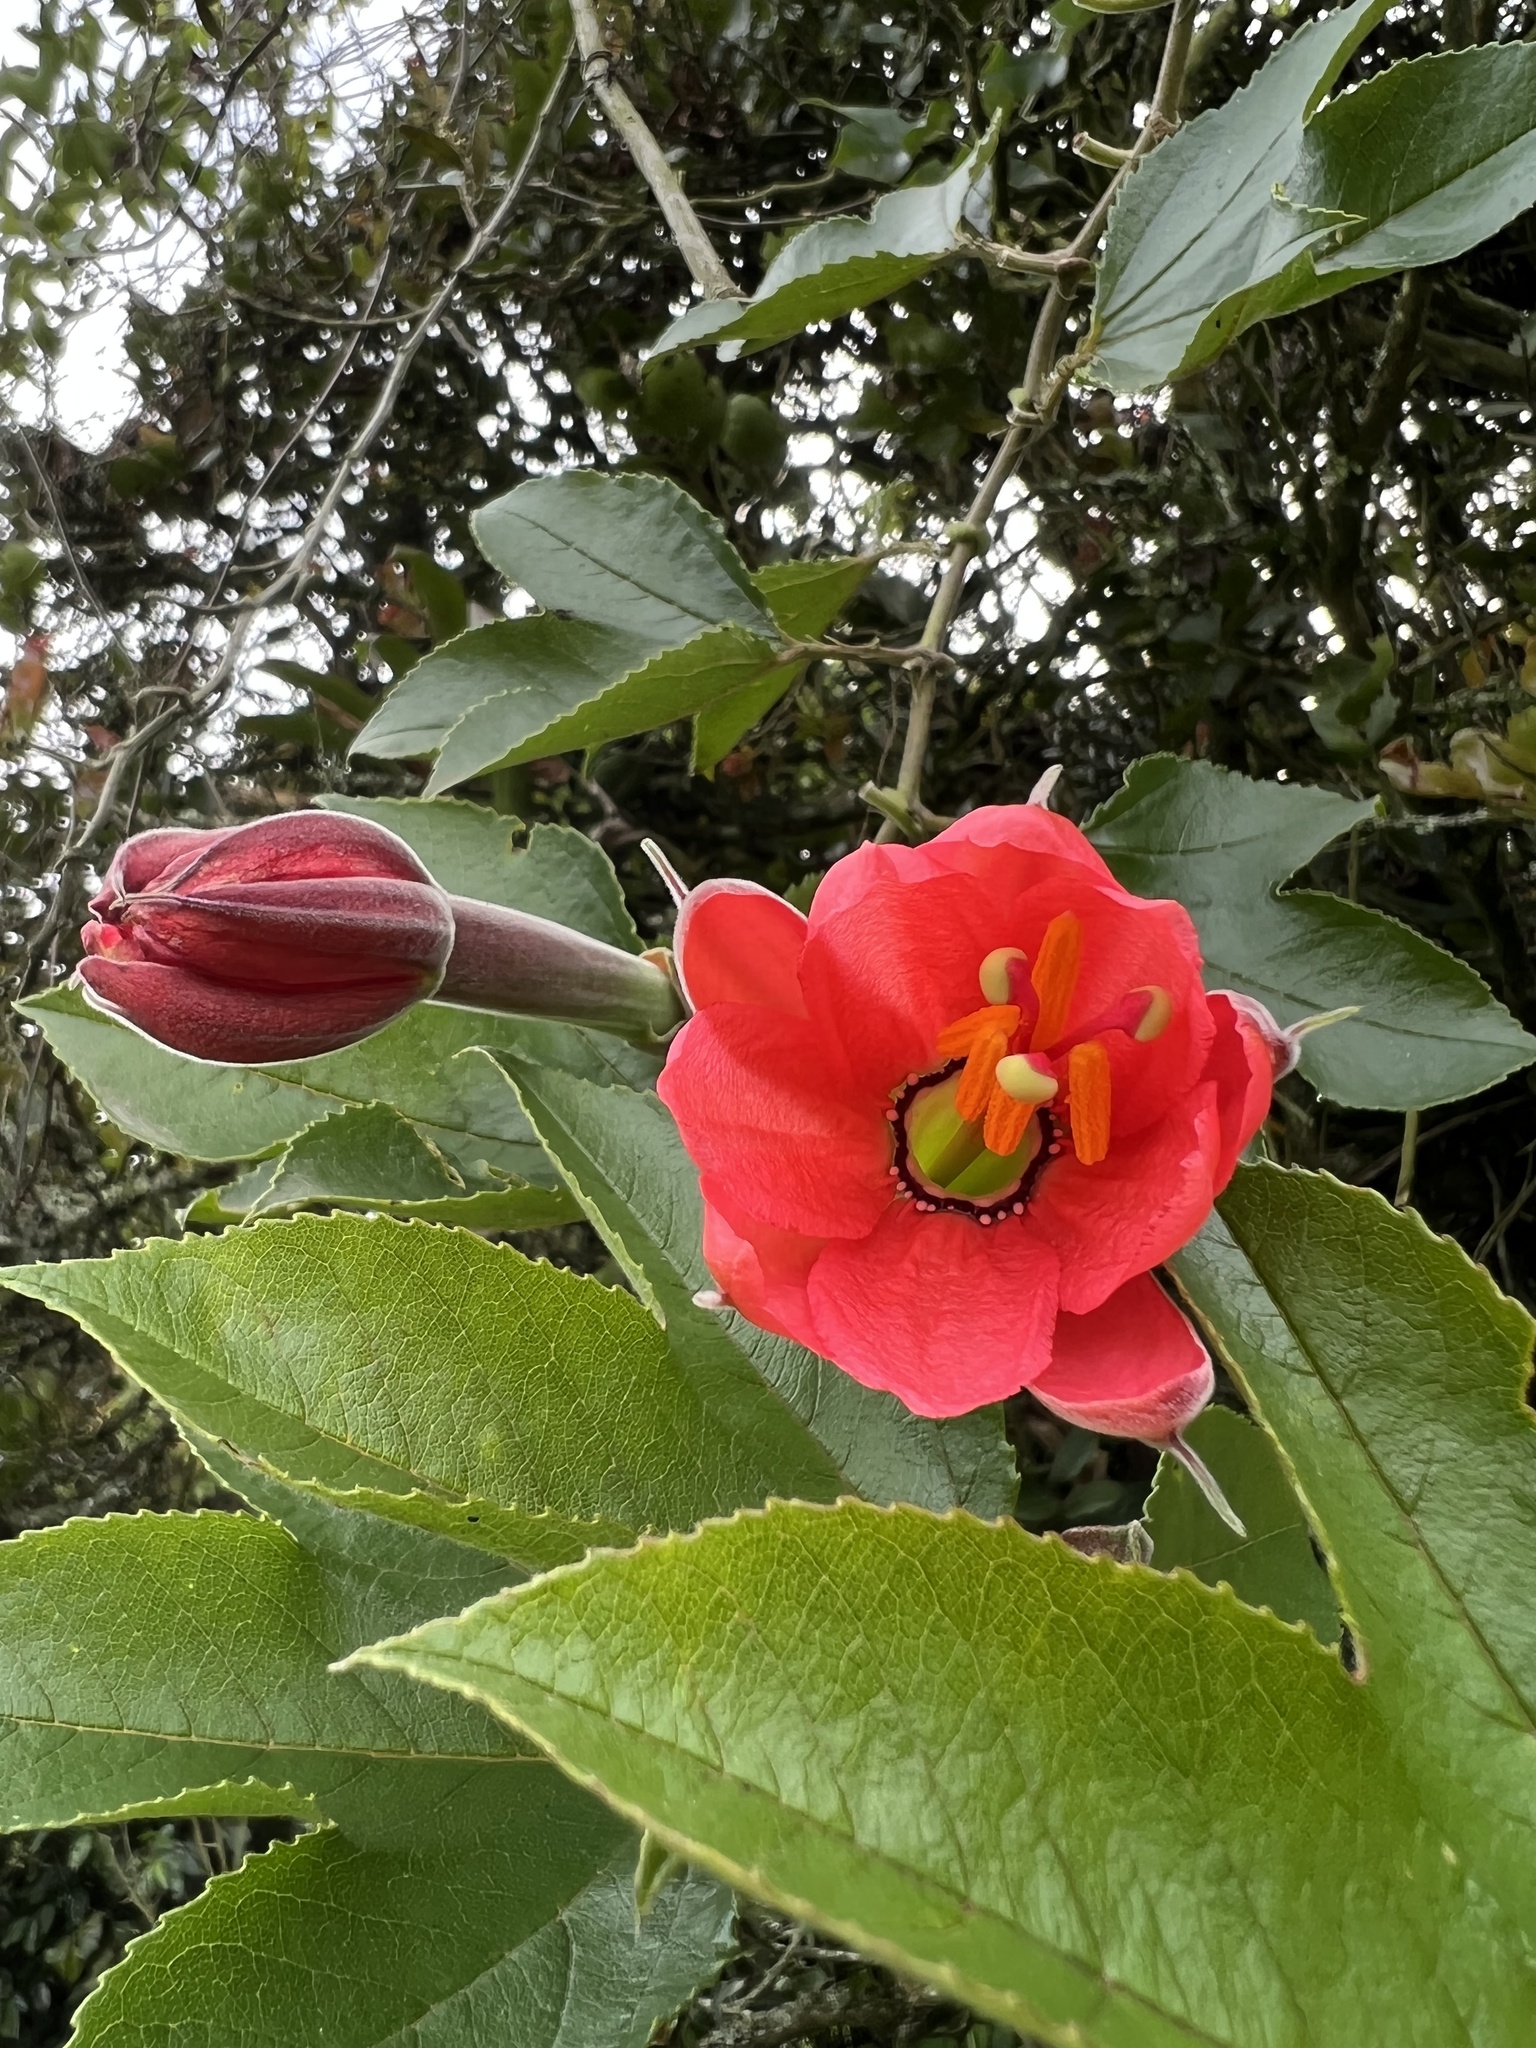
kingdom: Plantae
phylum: Tracheophyta
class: Magnoliopsida
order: Malpighiales
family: Passifloraceae
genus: Passiflora
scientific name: Passiflora mixta
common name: Passion flower
